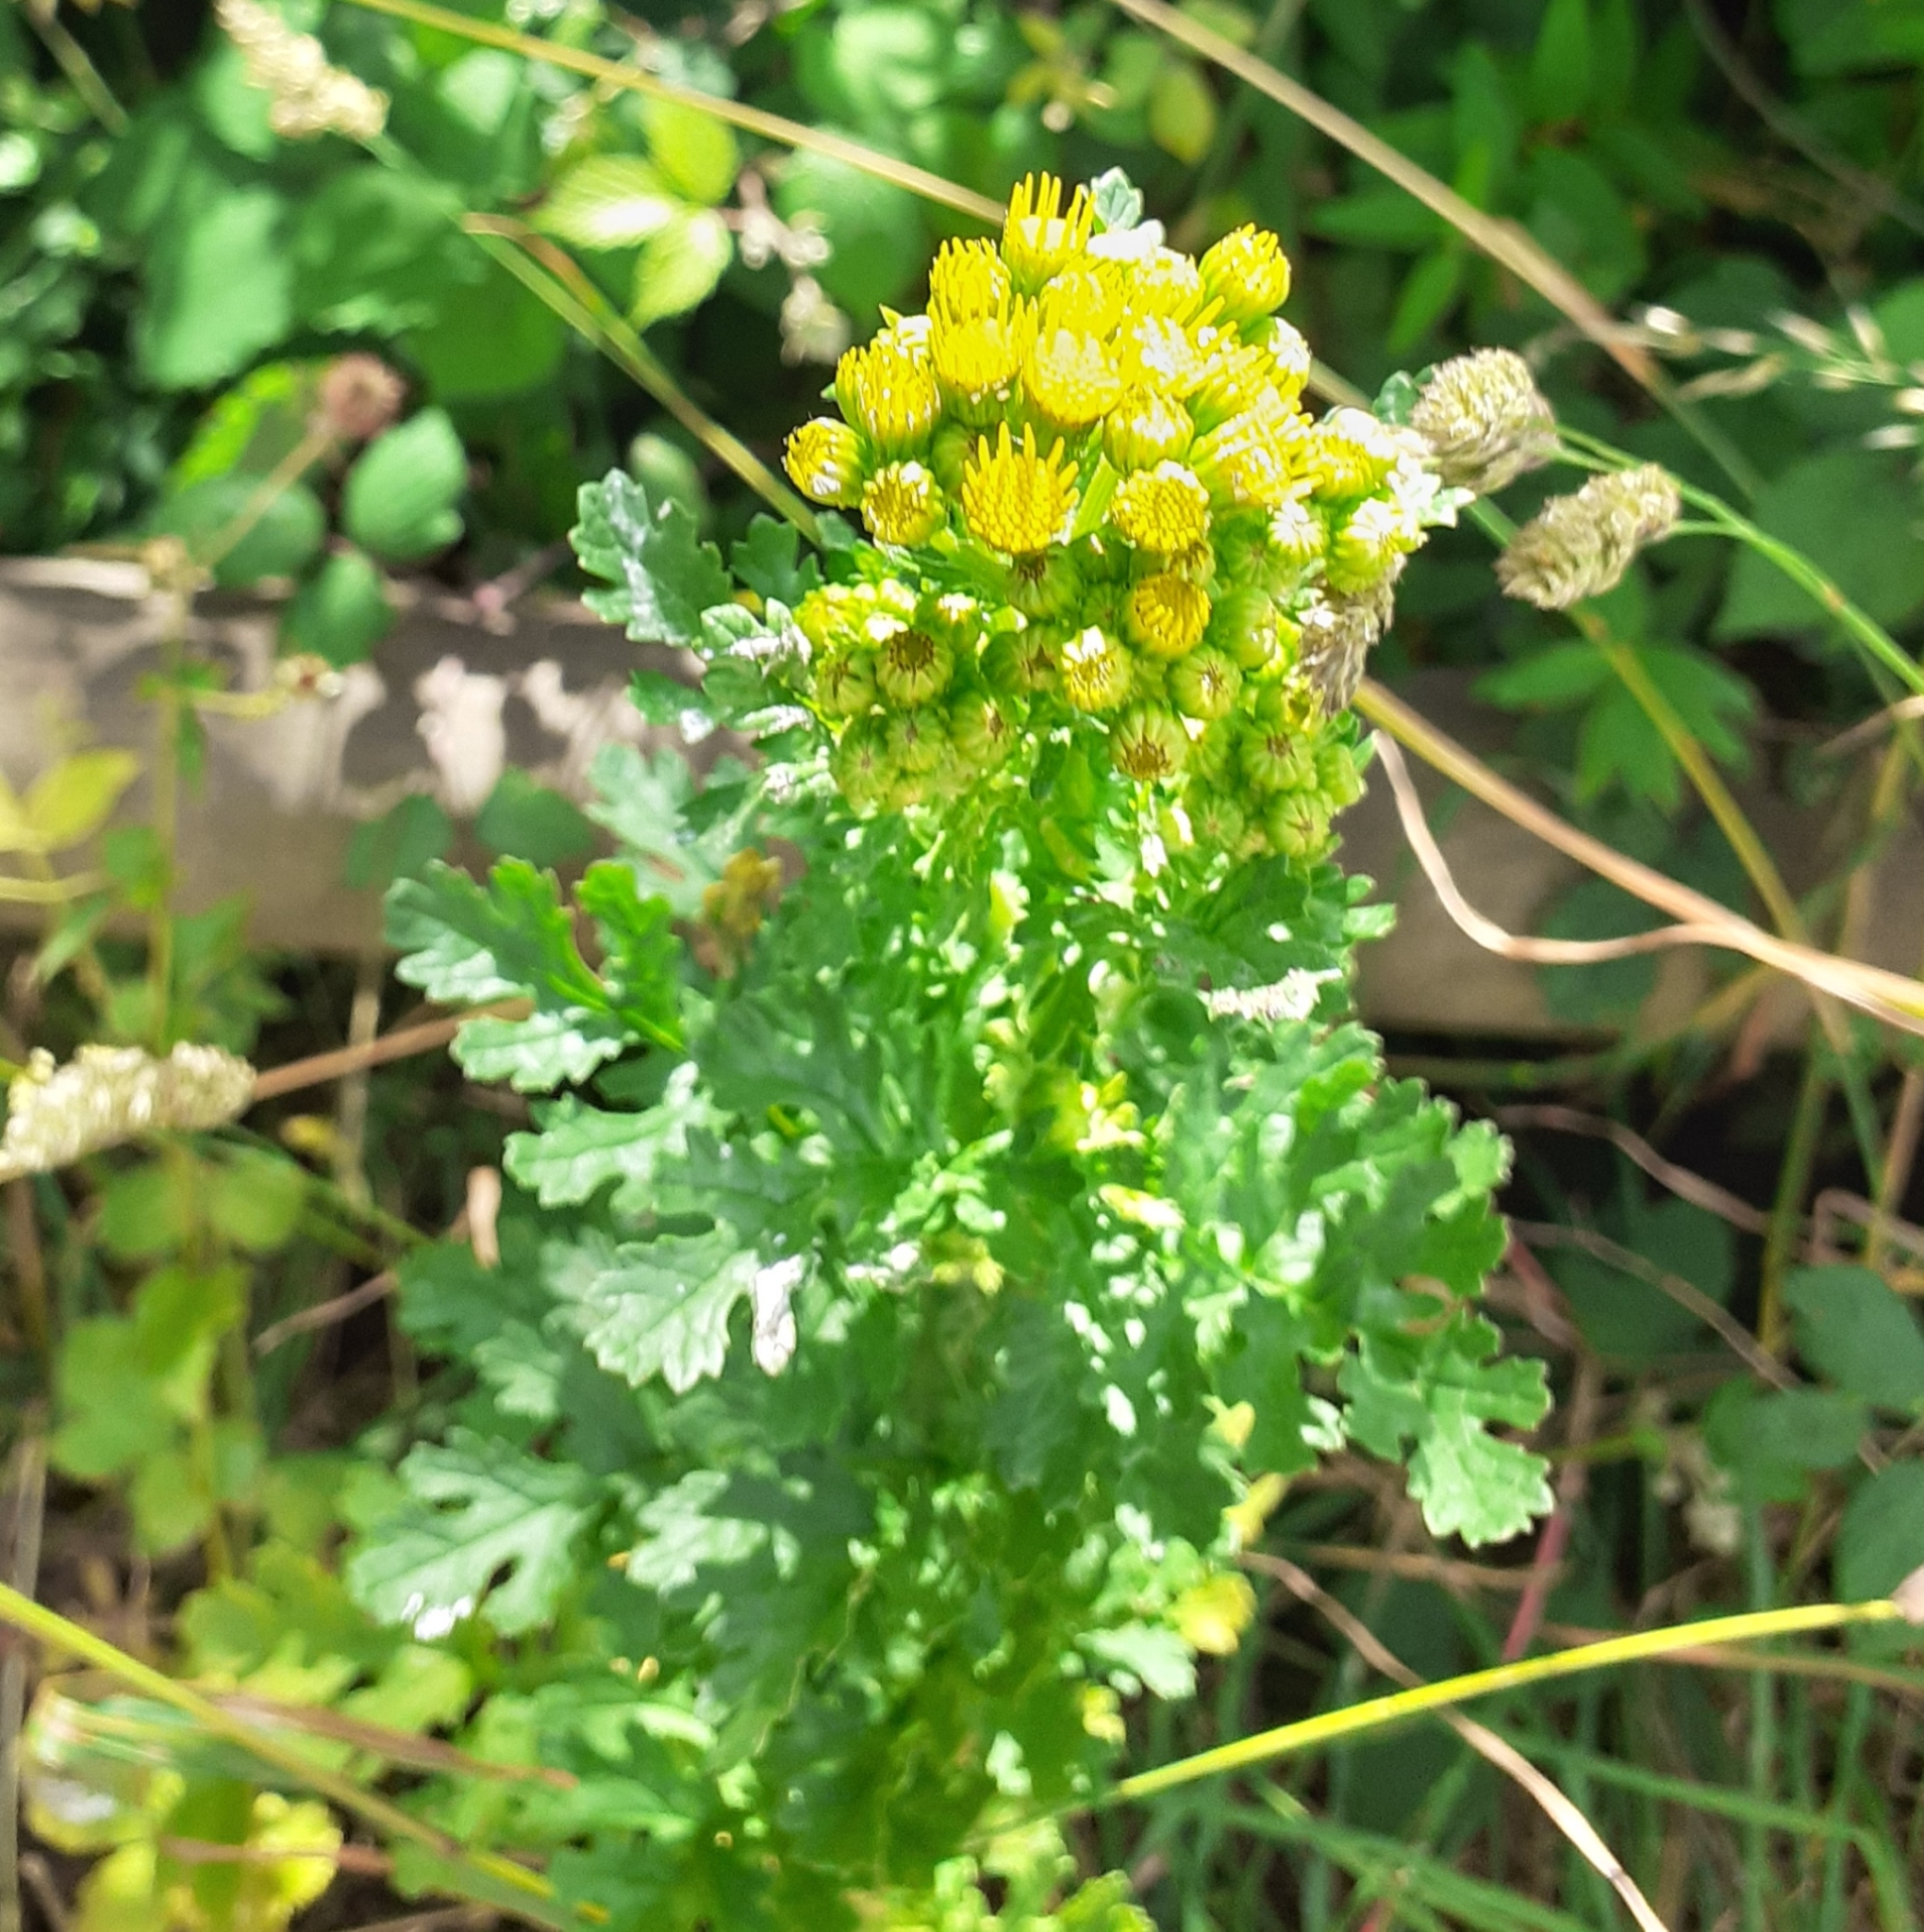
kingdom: Plantae
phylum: Tracheophyta
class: Magnoliopsida
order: Asterales
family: Asteraceae
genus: Jacobaea
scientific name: Jacobaea vulgaris
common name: Stinking willie
